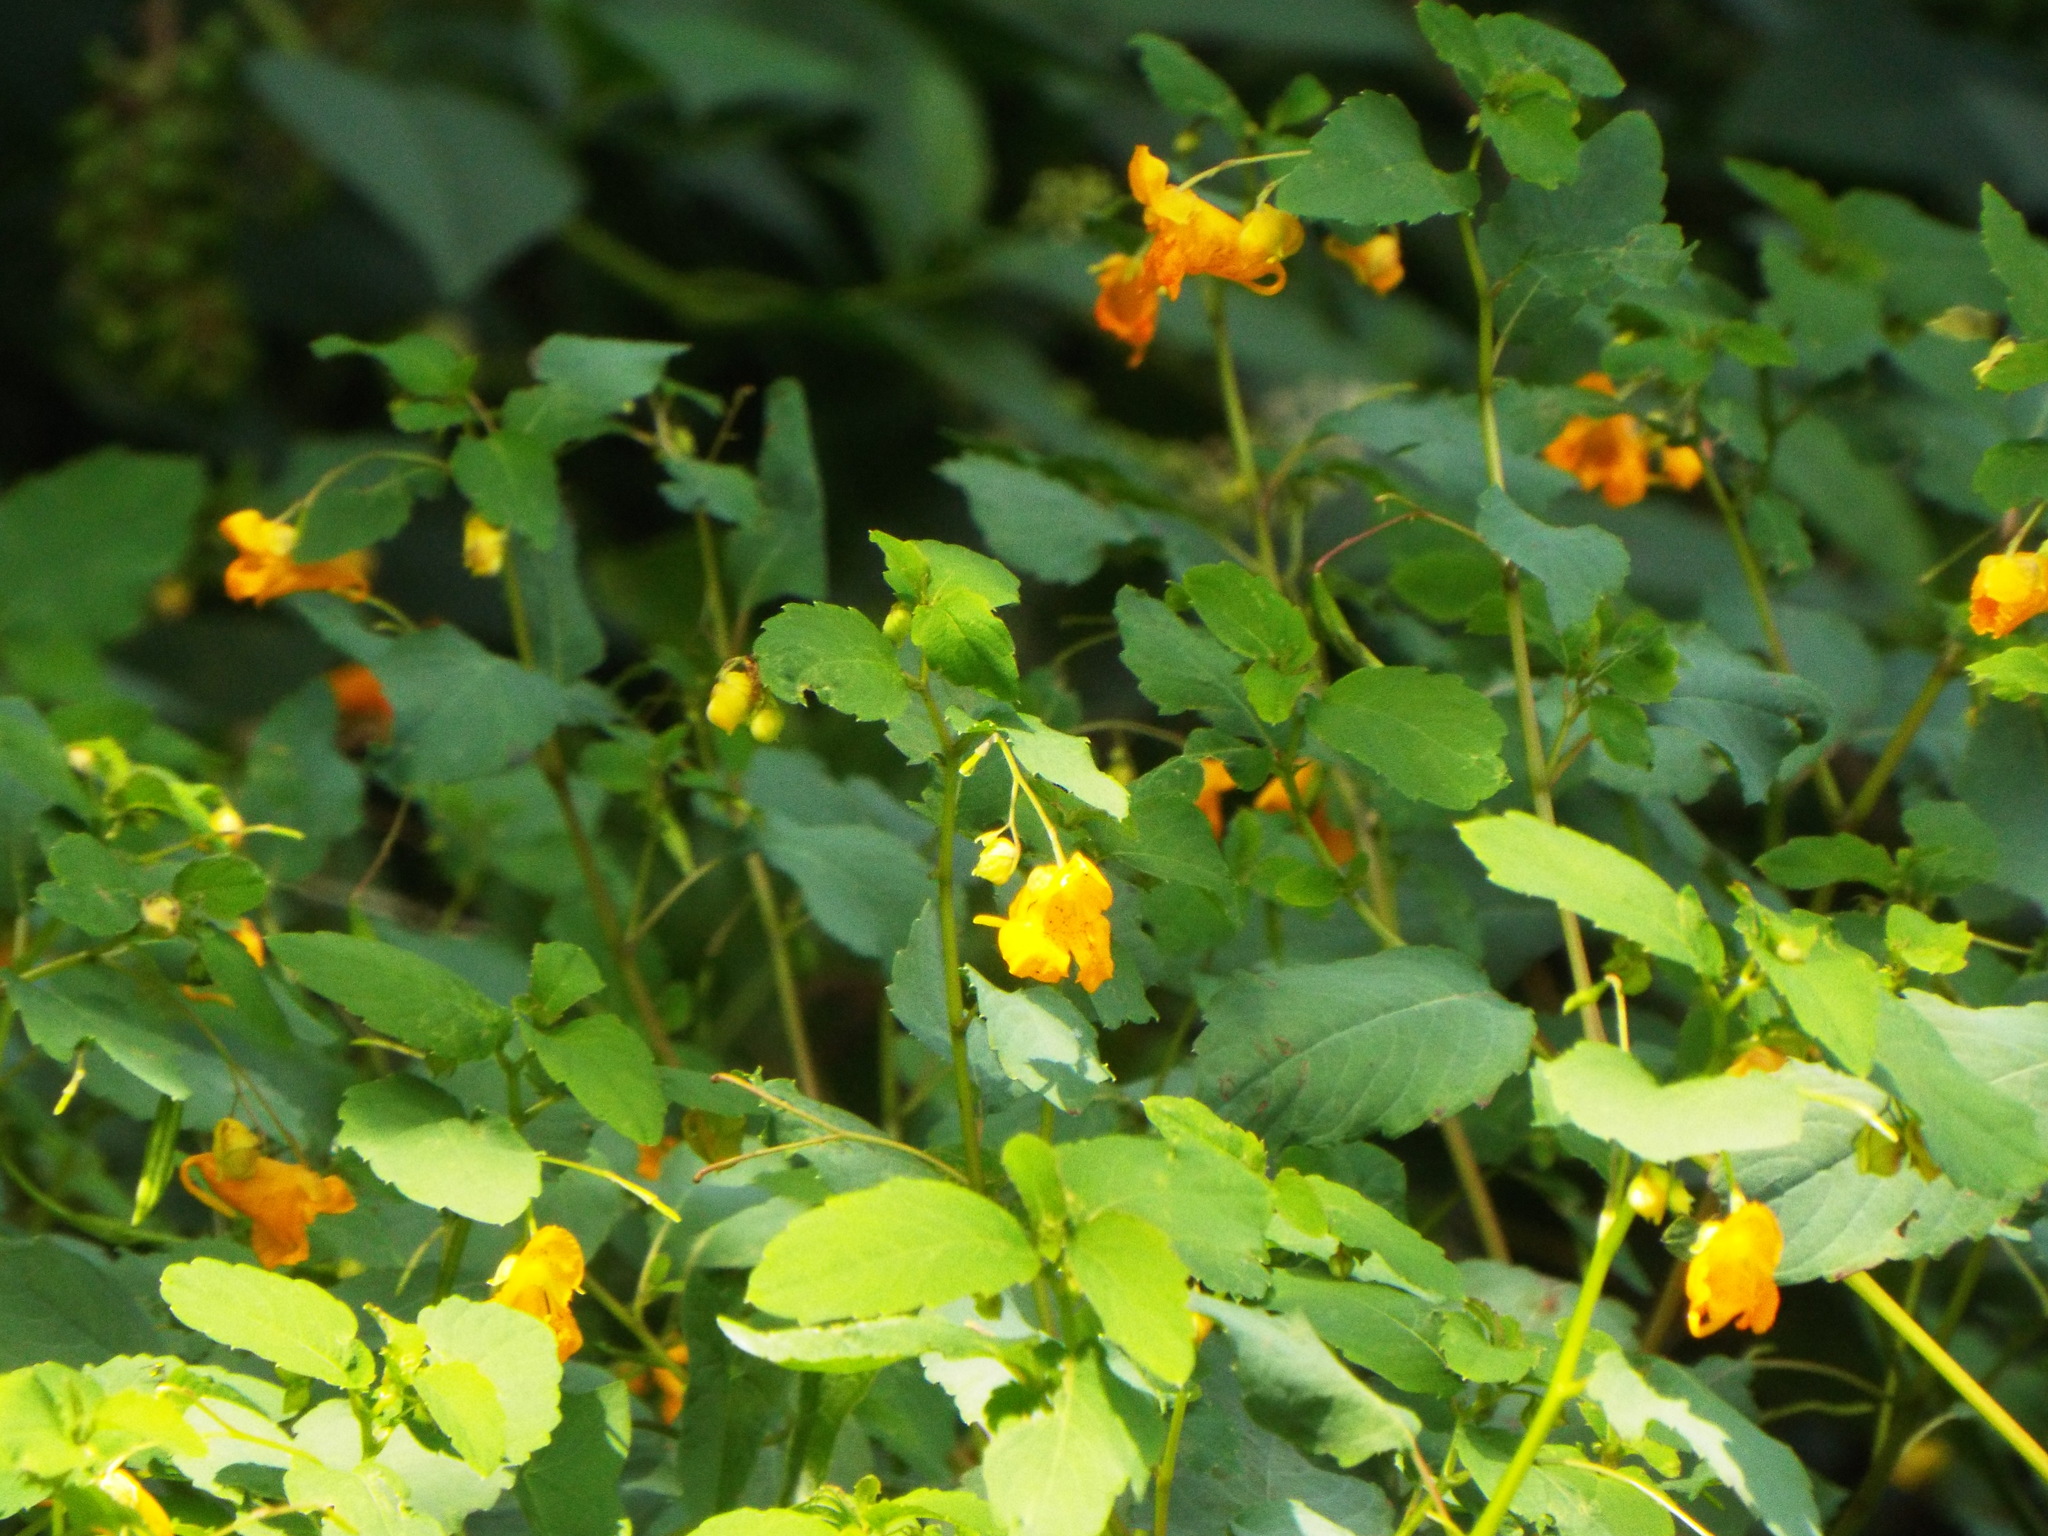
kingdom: Plantae
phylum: Tracheophyta
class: Magnoliopsida
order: Ericales
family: Balsaminaceae
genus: Impatiens
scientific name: Impatiens capensis
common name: Orange balsam
